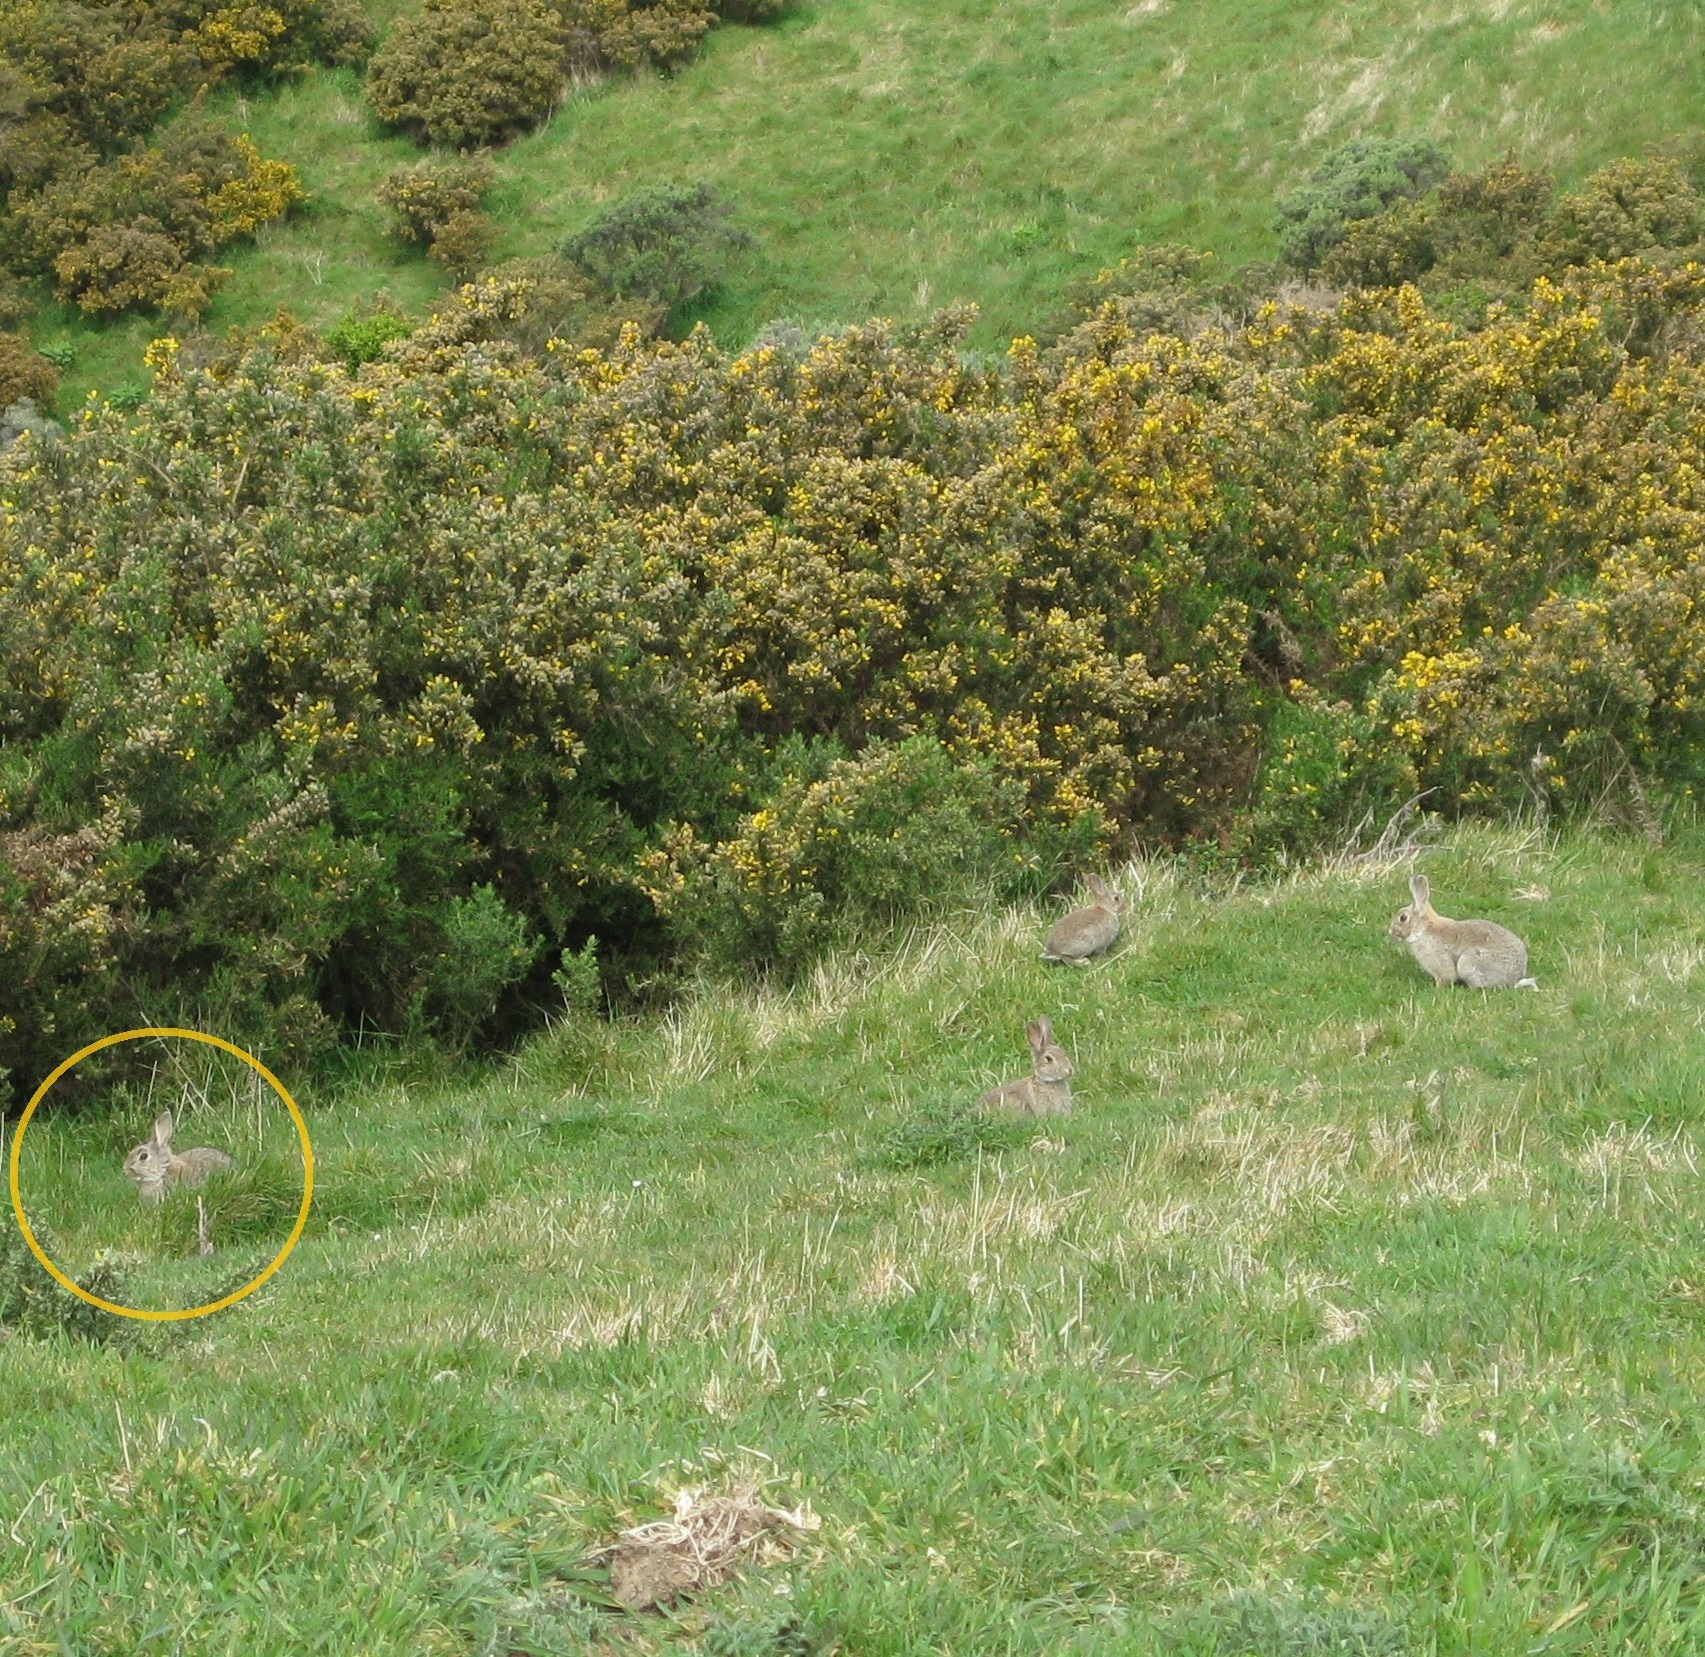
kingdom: Animalia
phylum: Chordata
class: Mammalia
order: Lagomorpha
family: Leporidae
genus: Oryctolagus
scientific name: Oryctolagus cuniculus
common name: European rabbit
